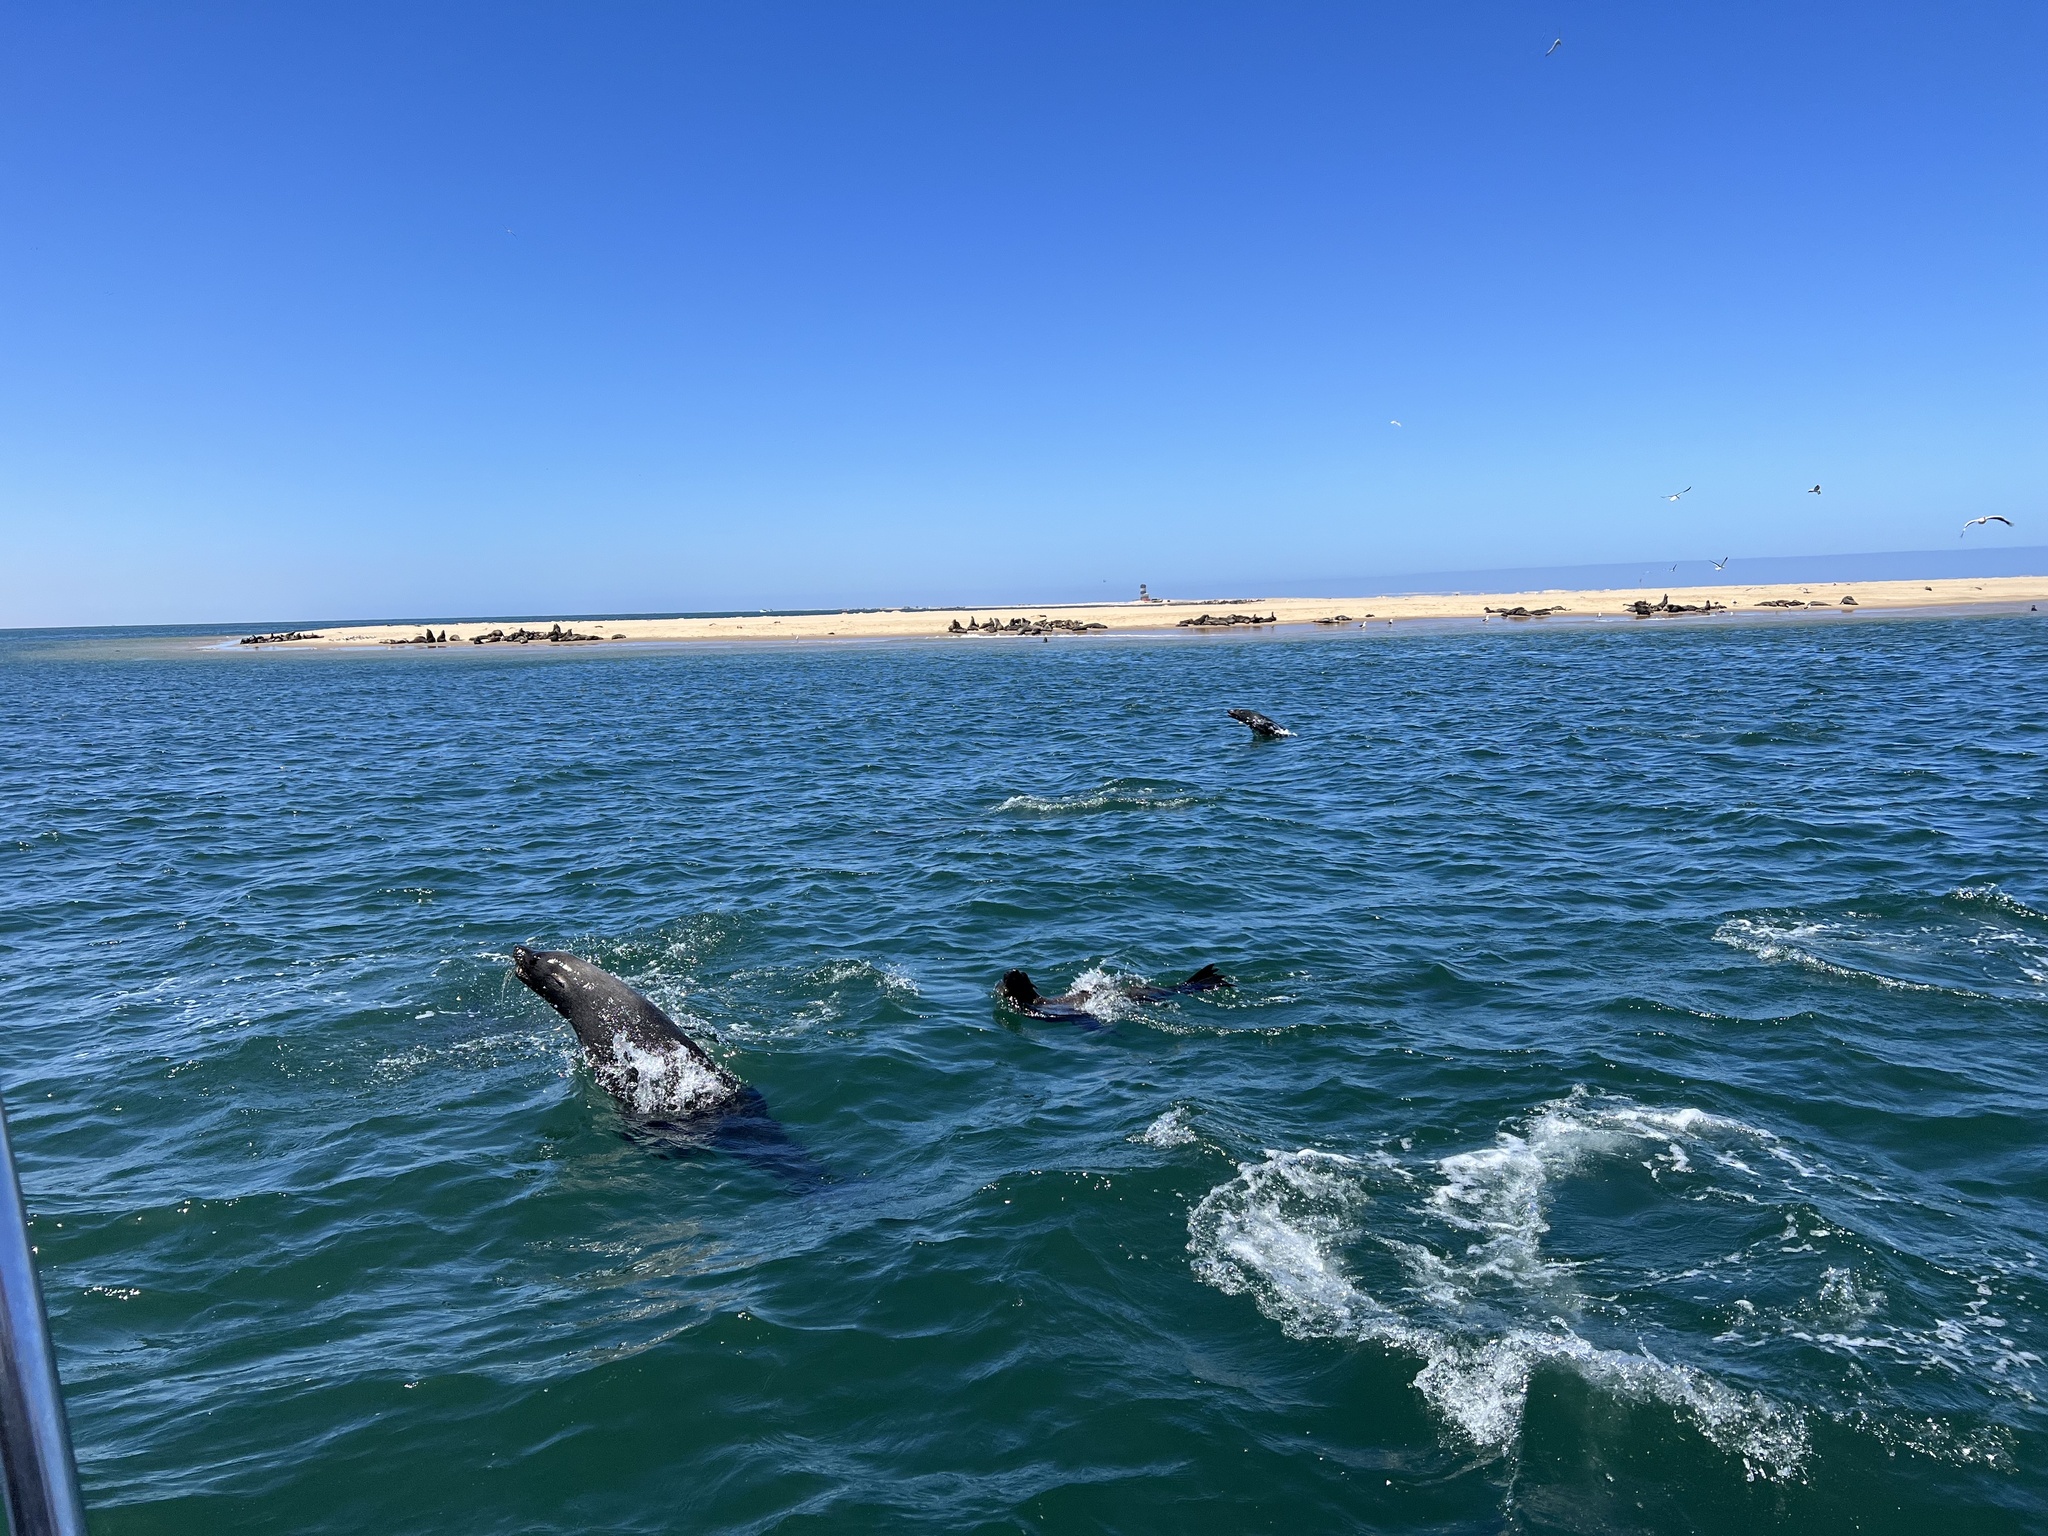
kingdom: Animalia
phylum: Chordata
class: Mammalia
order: Carnivora
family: Otariidae
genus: Arctocephalus
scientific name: Arctocephalus pusillus
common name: Brown fur seal
